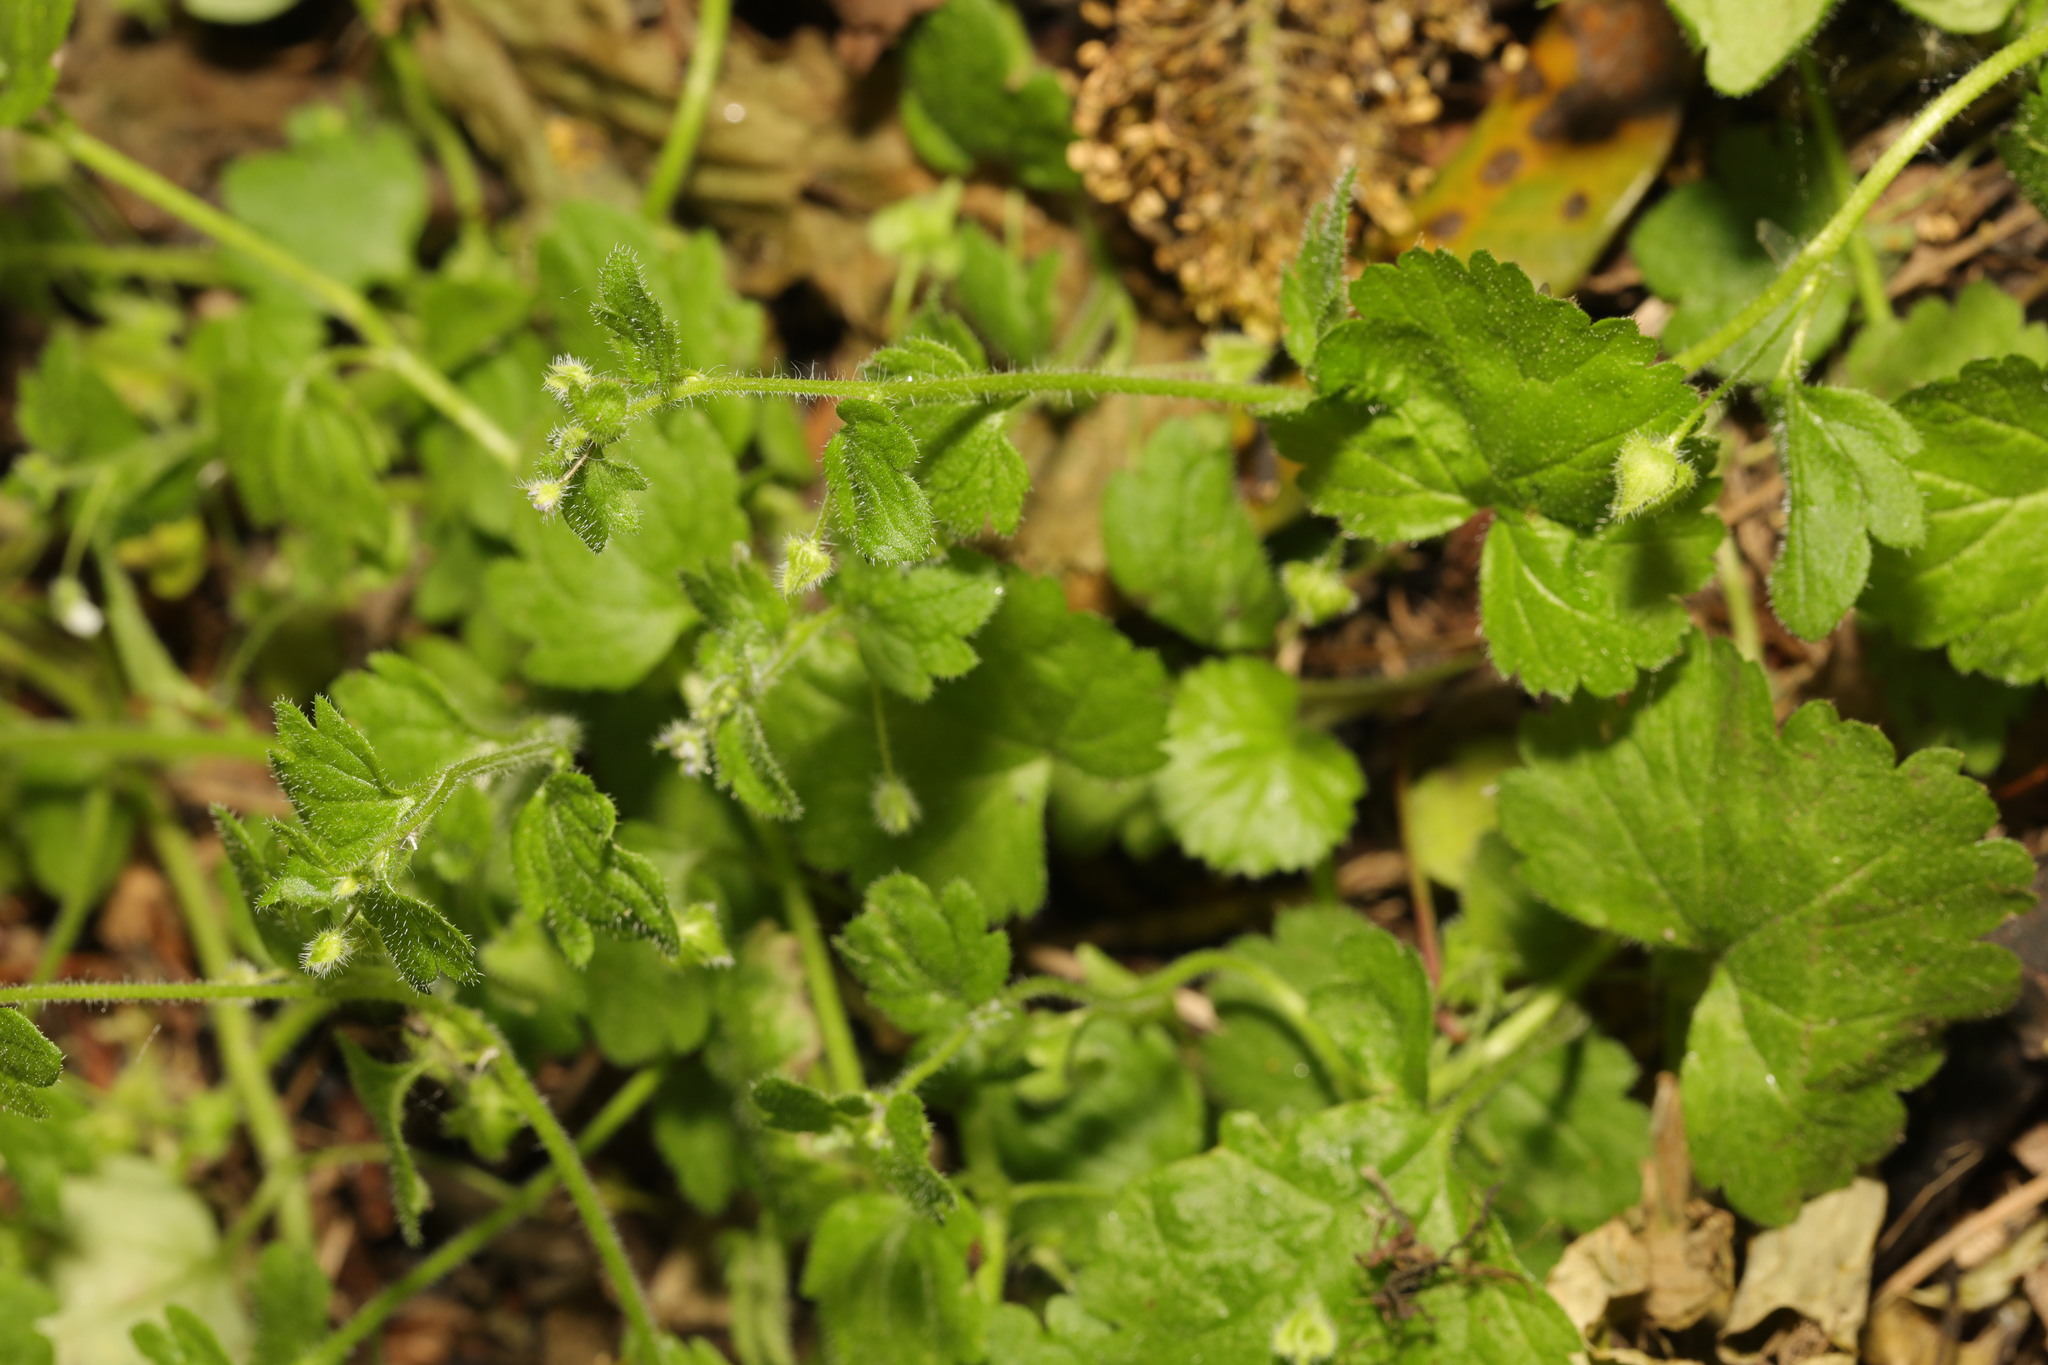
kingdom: Plantae
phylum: Tracheophyta
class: Magnoliopsida
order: Lamiales
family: Plantaginaceae
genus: Veronica
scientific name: Veronica sublobata
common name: False ivy-leaved speedwell
